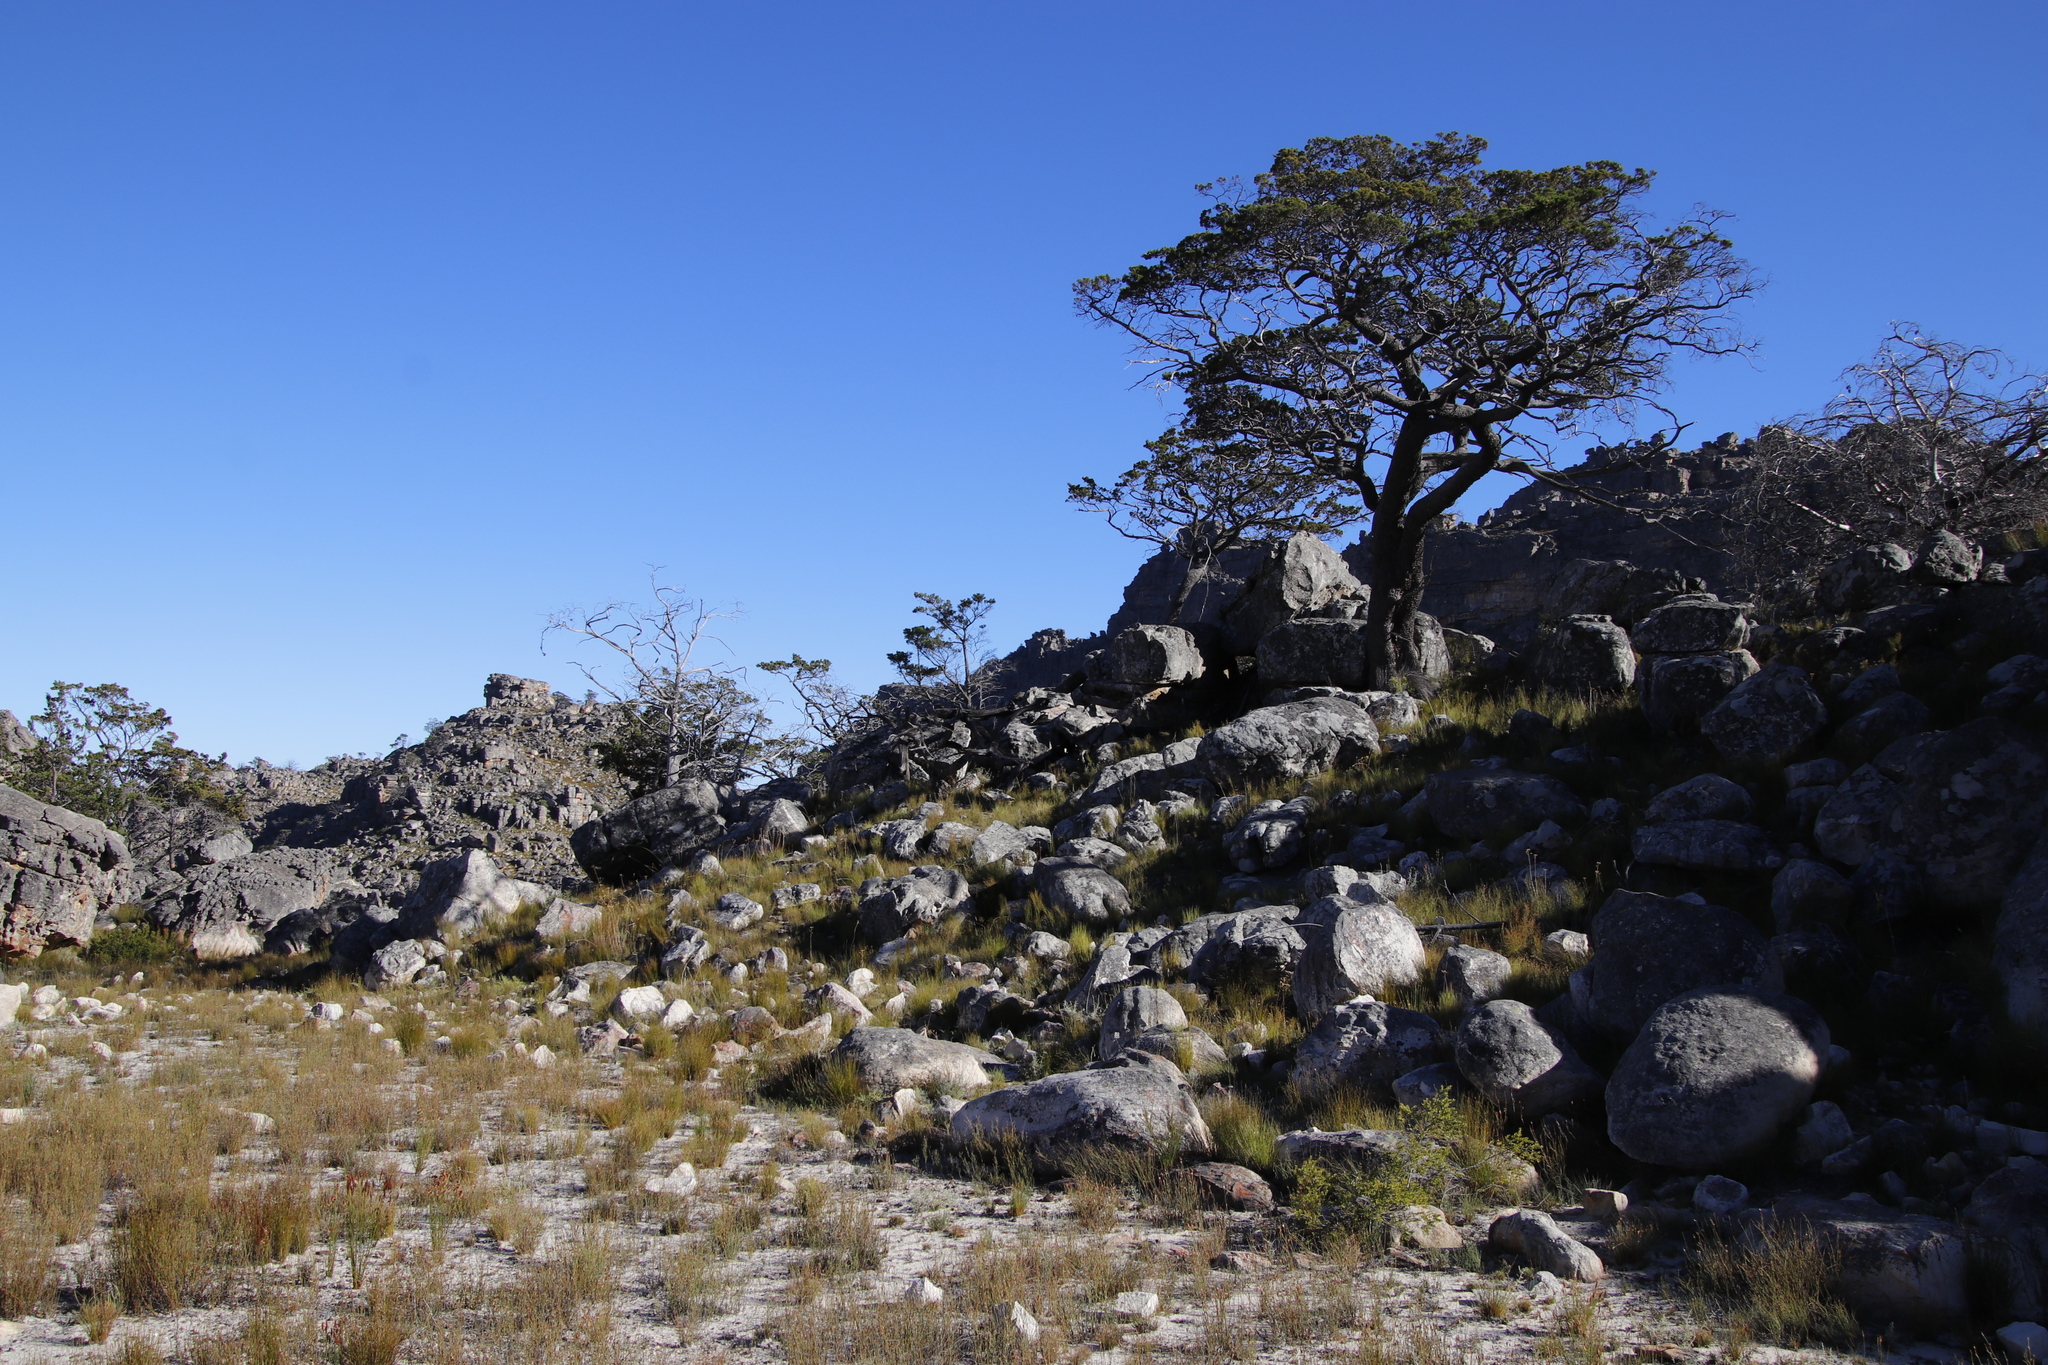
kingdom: Plantae
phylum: Tracheophyta
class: Pinopsida
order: Pinales
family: Cupressaceae
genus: Widdringtonia
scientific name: Widdringtonia nodiflora
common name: Cape cypress
